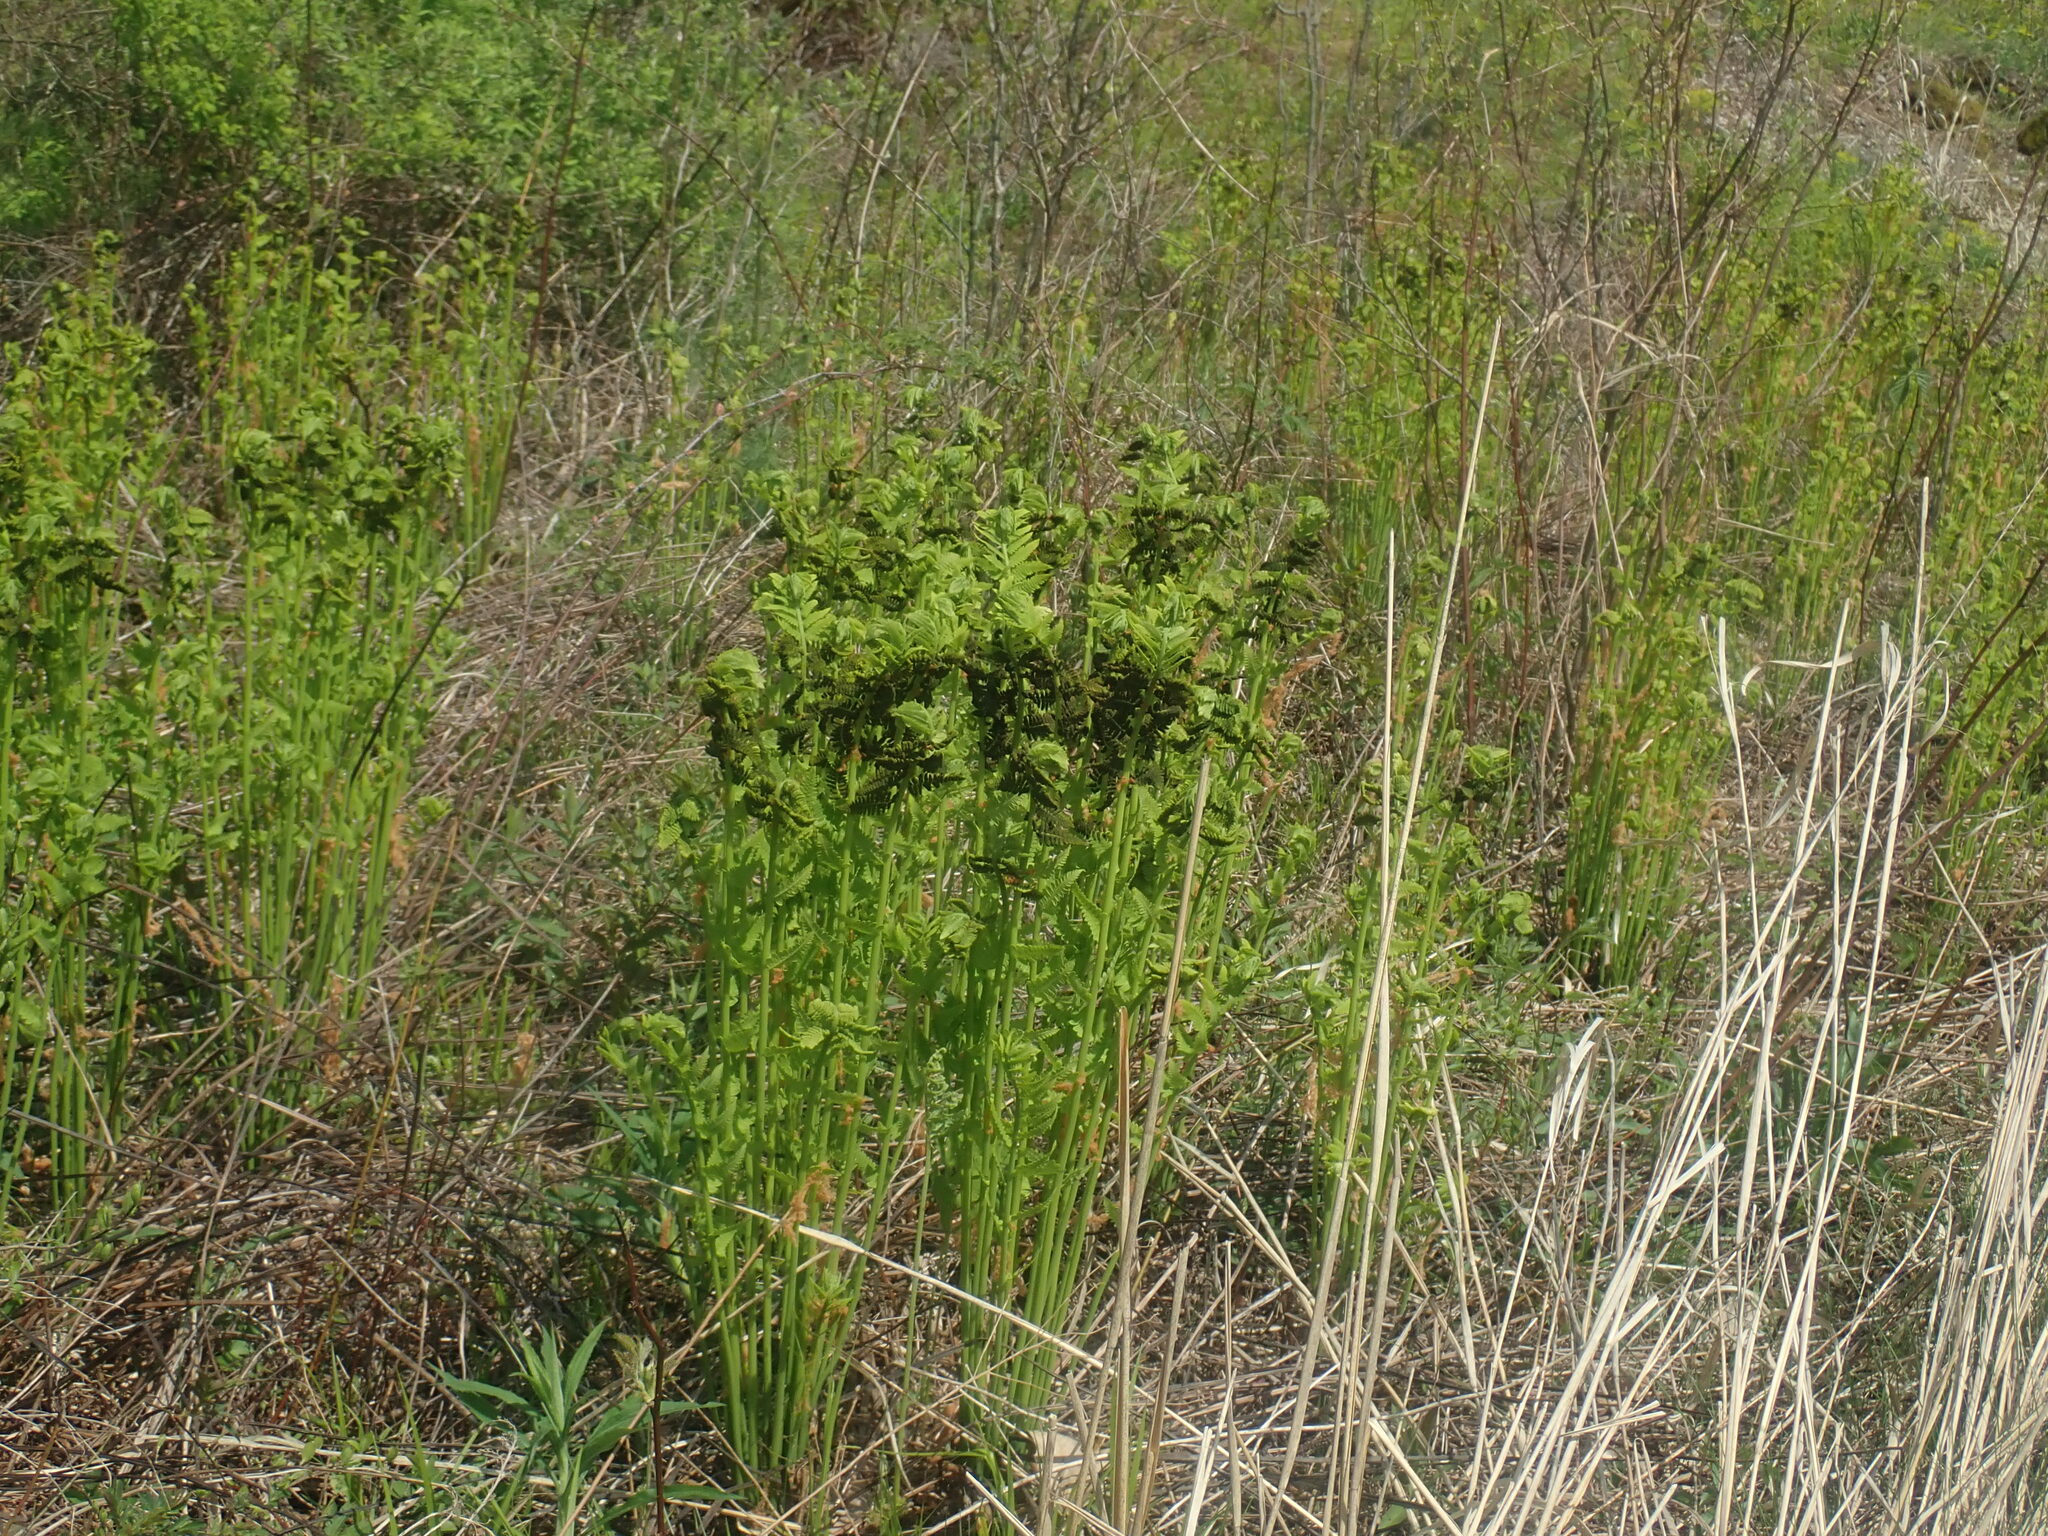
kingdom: Plantae
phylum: Tracheophyta
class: Polypodiopsida
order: Osmundales
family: Osmundaceae
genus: Claytosmunda
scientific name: Claytosmunda claytoniana
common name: Clayton's fern
